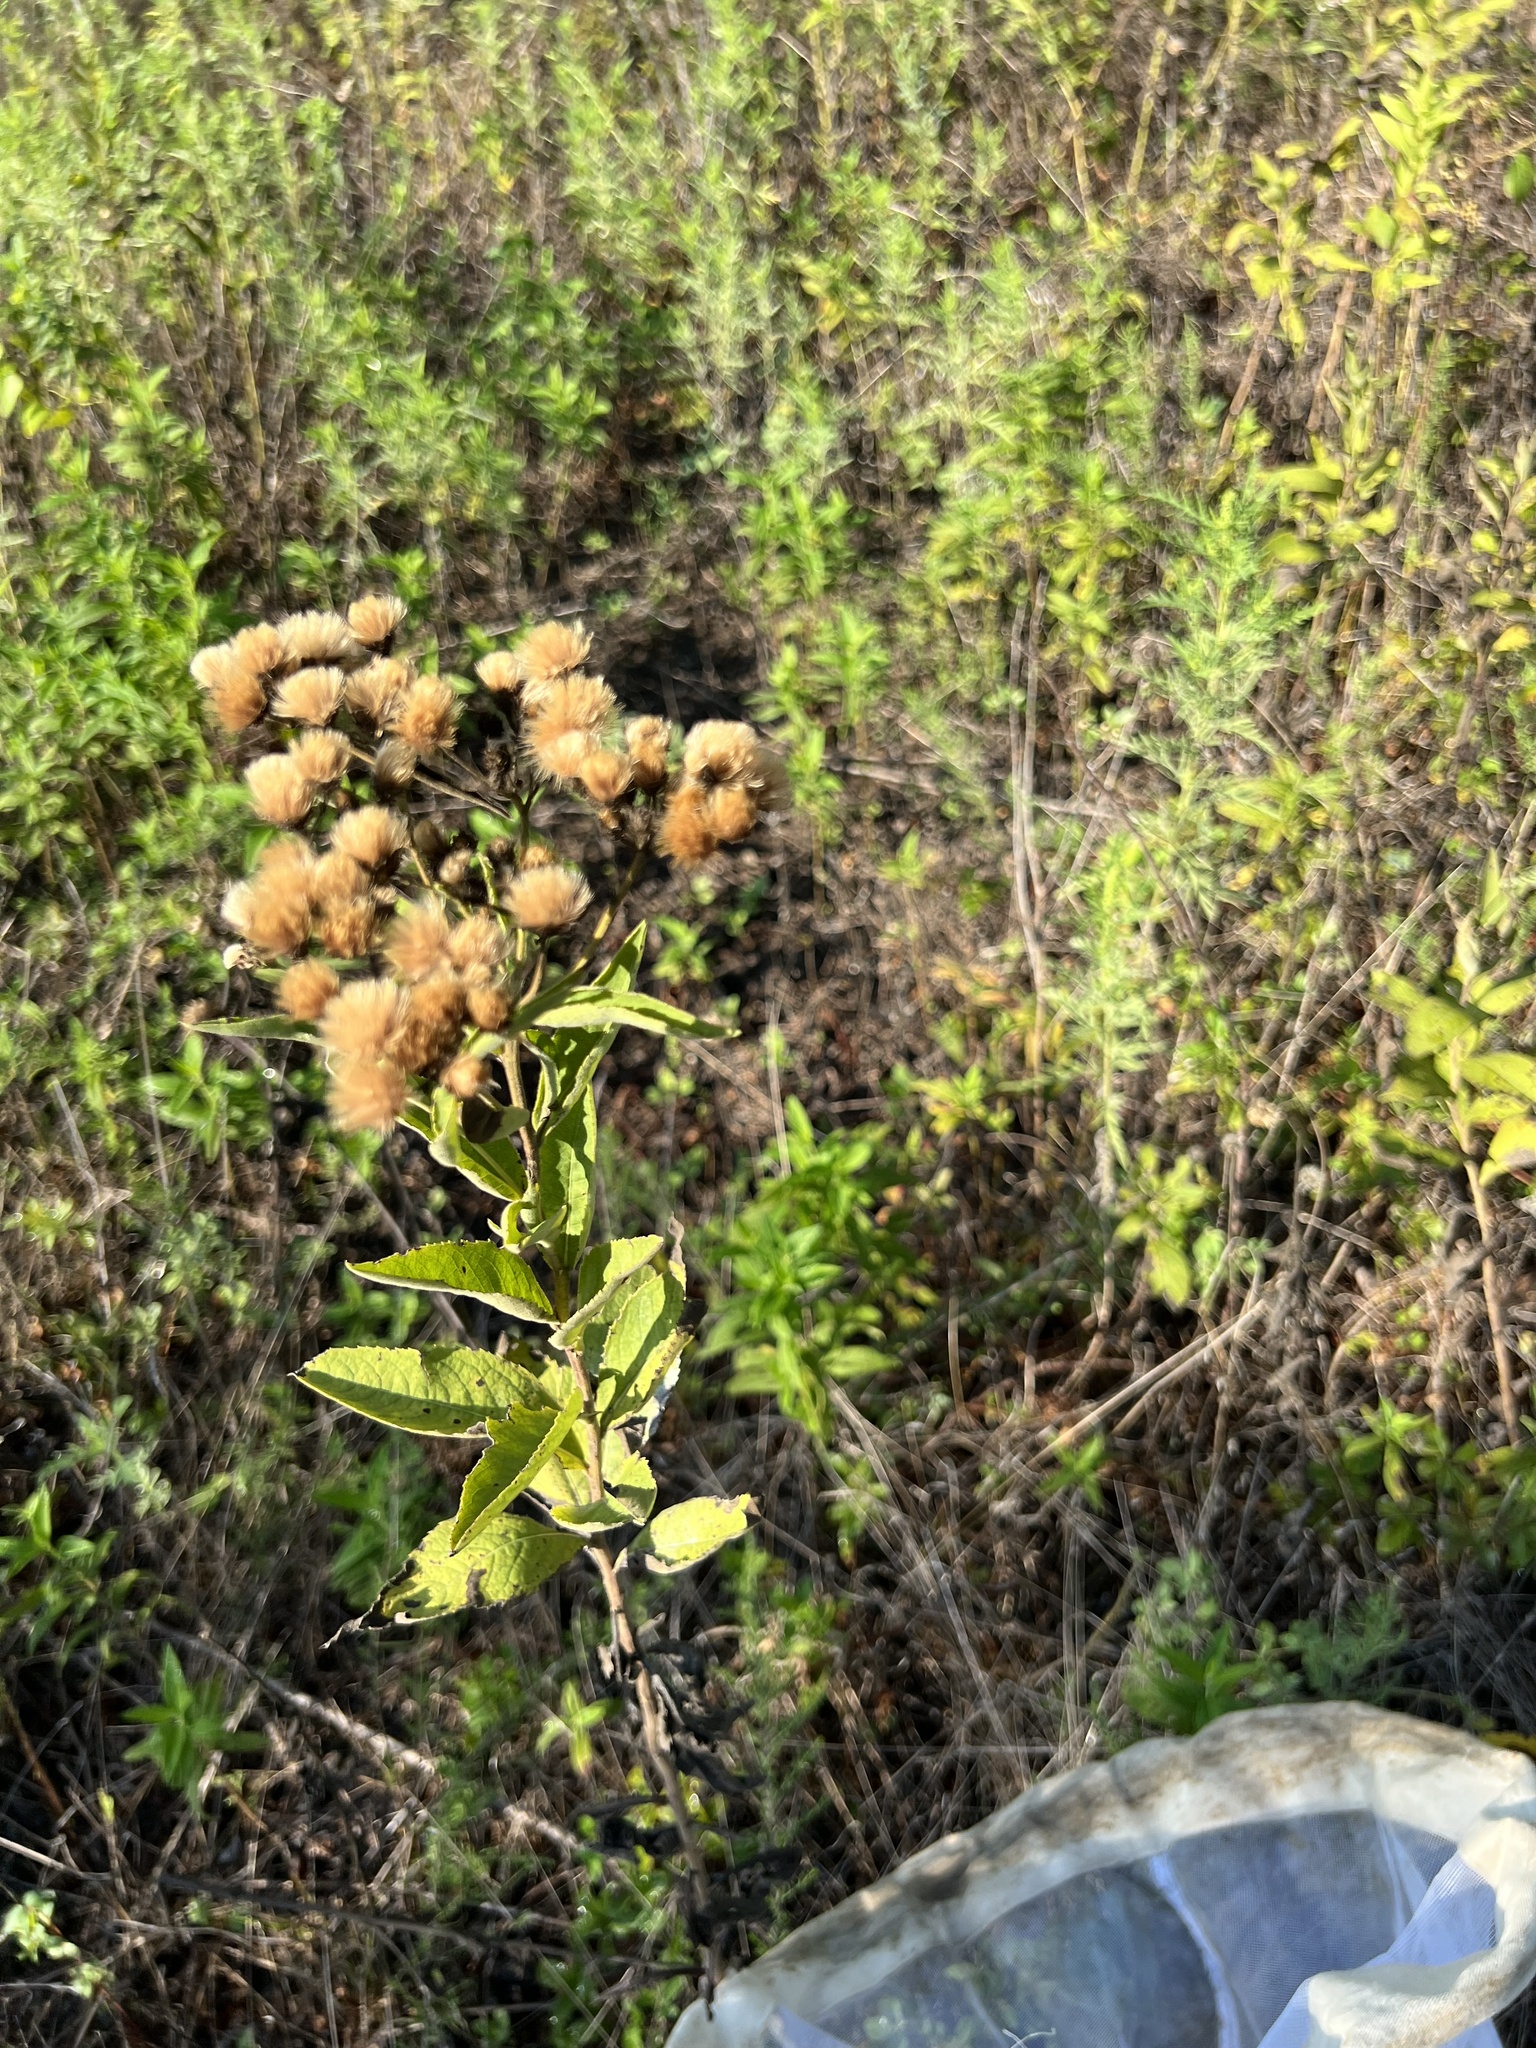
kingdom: Plantae
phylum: Tracheophyta
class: Magnoliopsida
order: Asterales
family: Asteraceae
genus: Vernonia
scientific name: Vernonia baldwinii
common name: Western ironweed
